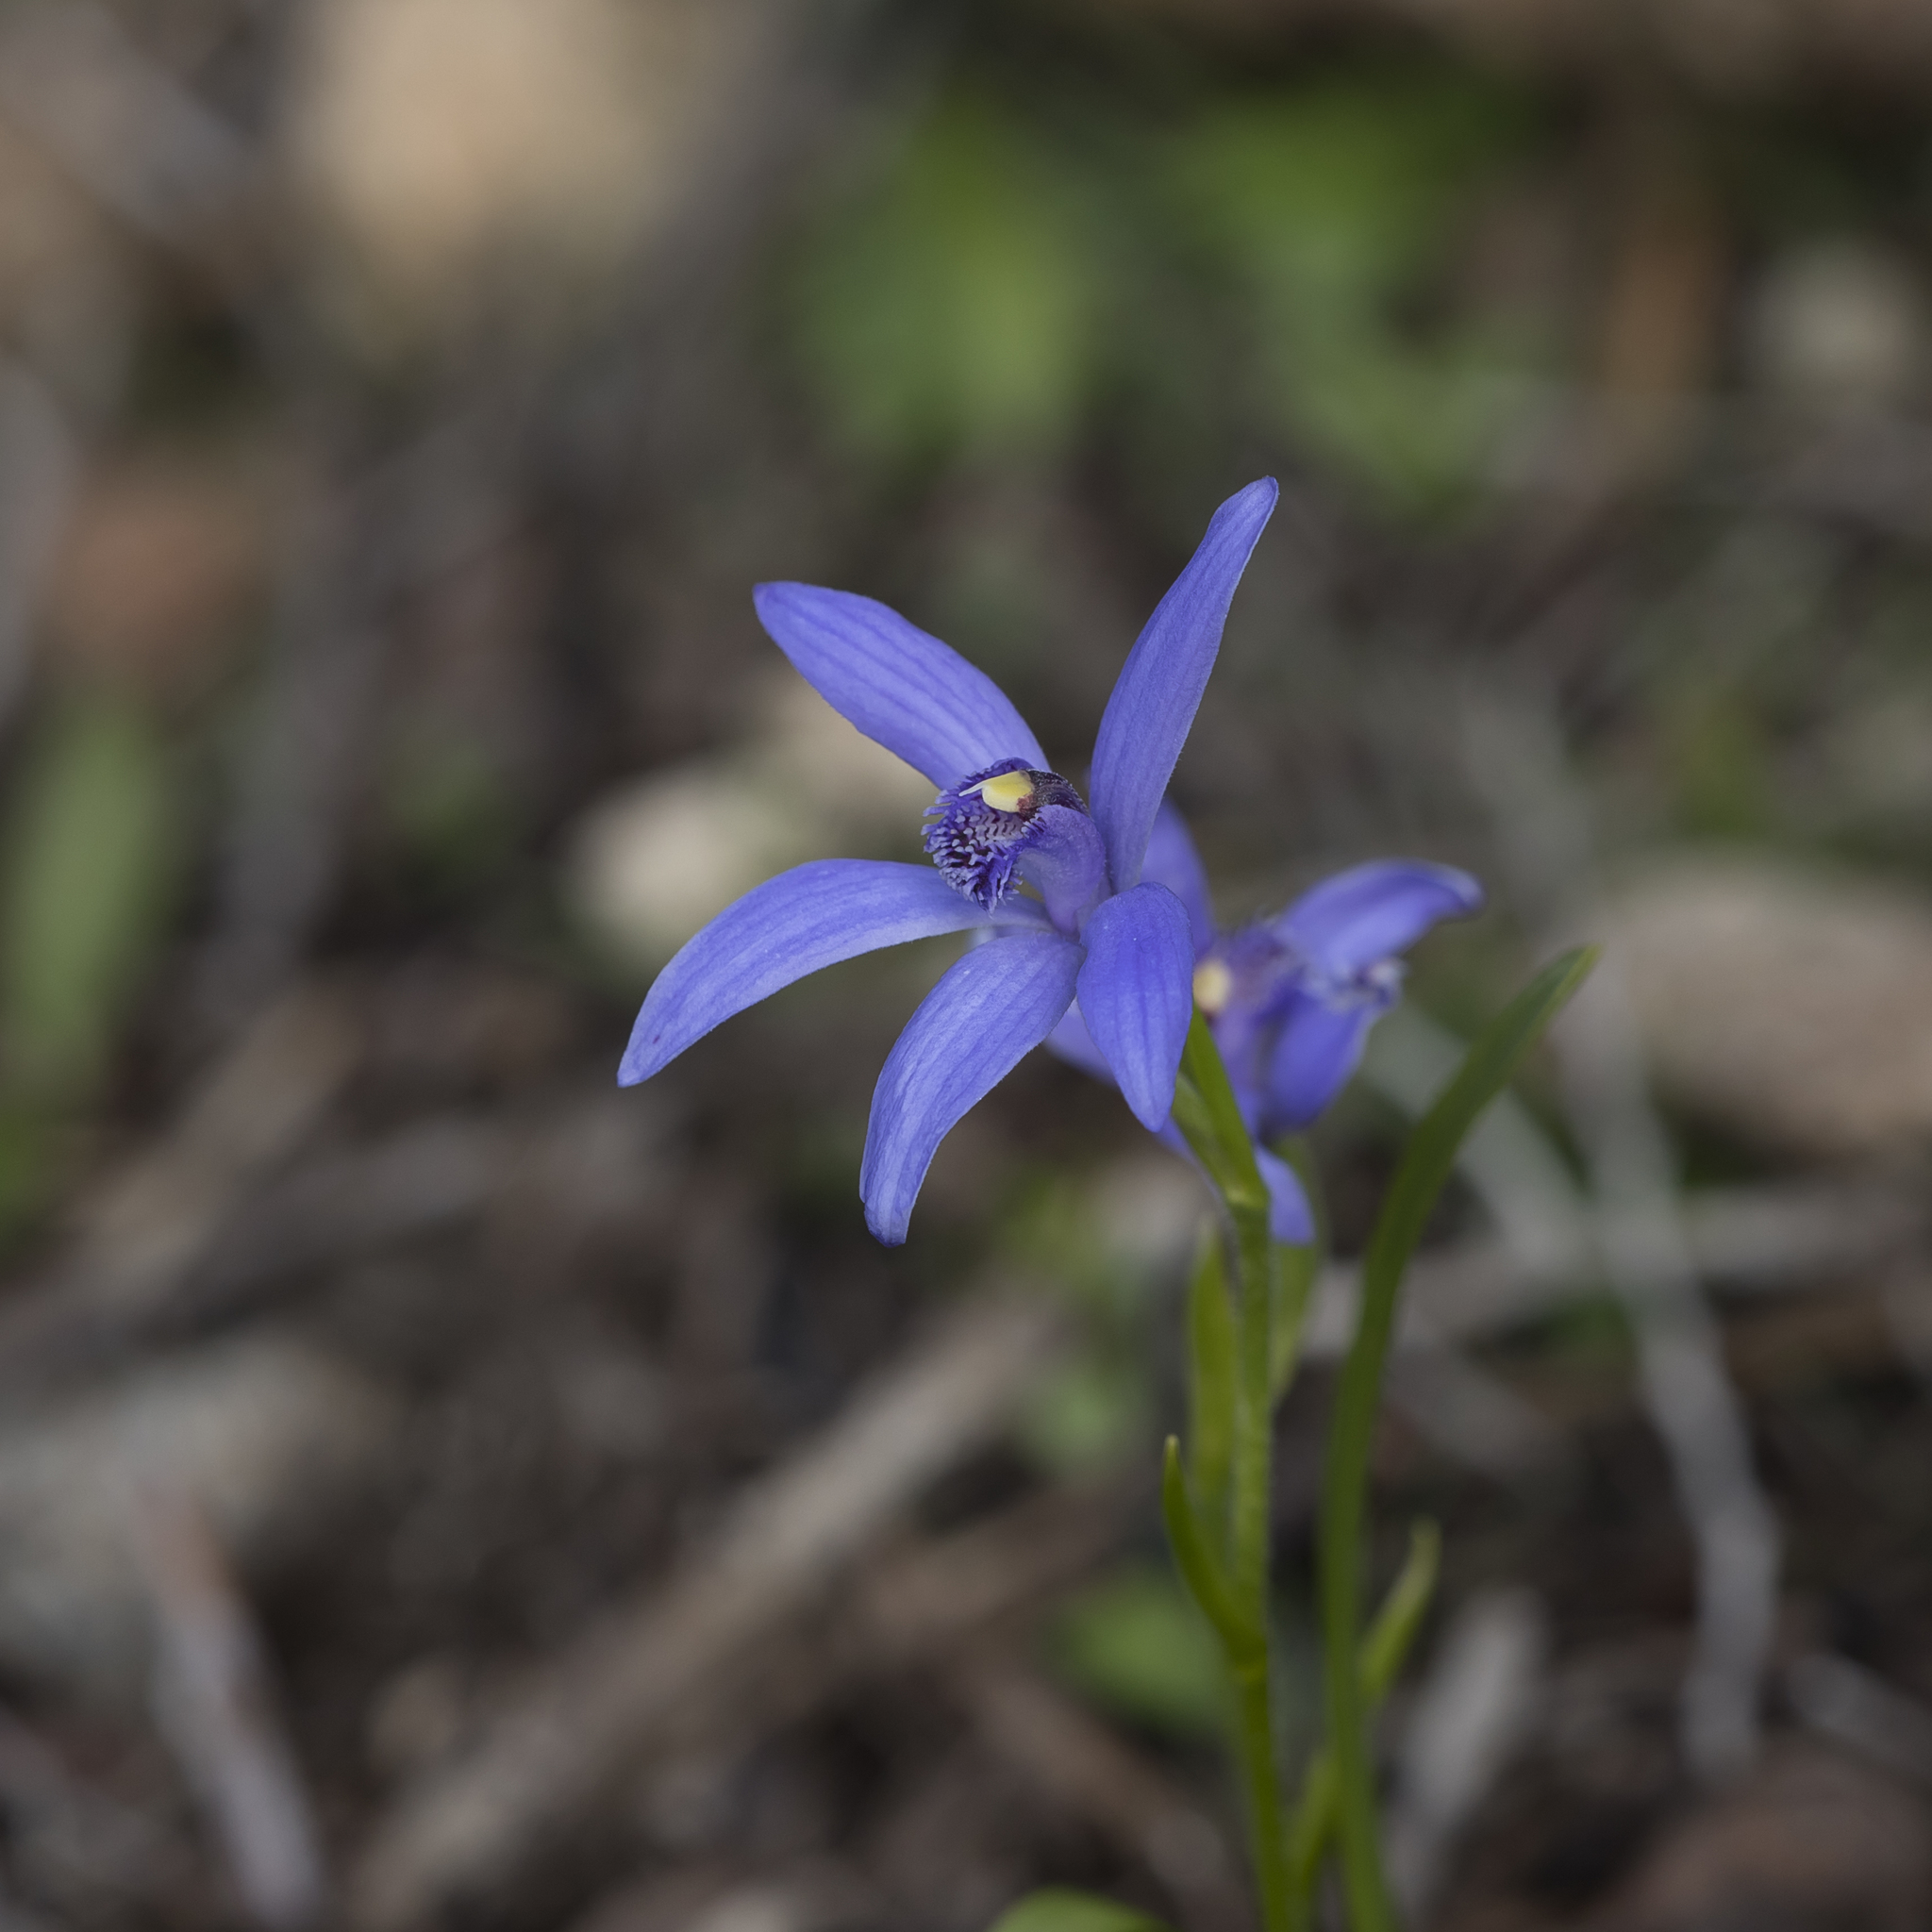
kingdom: Plantae
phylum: Tracheophyta
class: Liliopsida
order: Asparagales
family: Orchidaceae
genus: Pheladenia
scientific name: Pheladenia deformis
